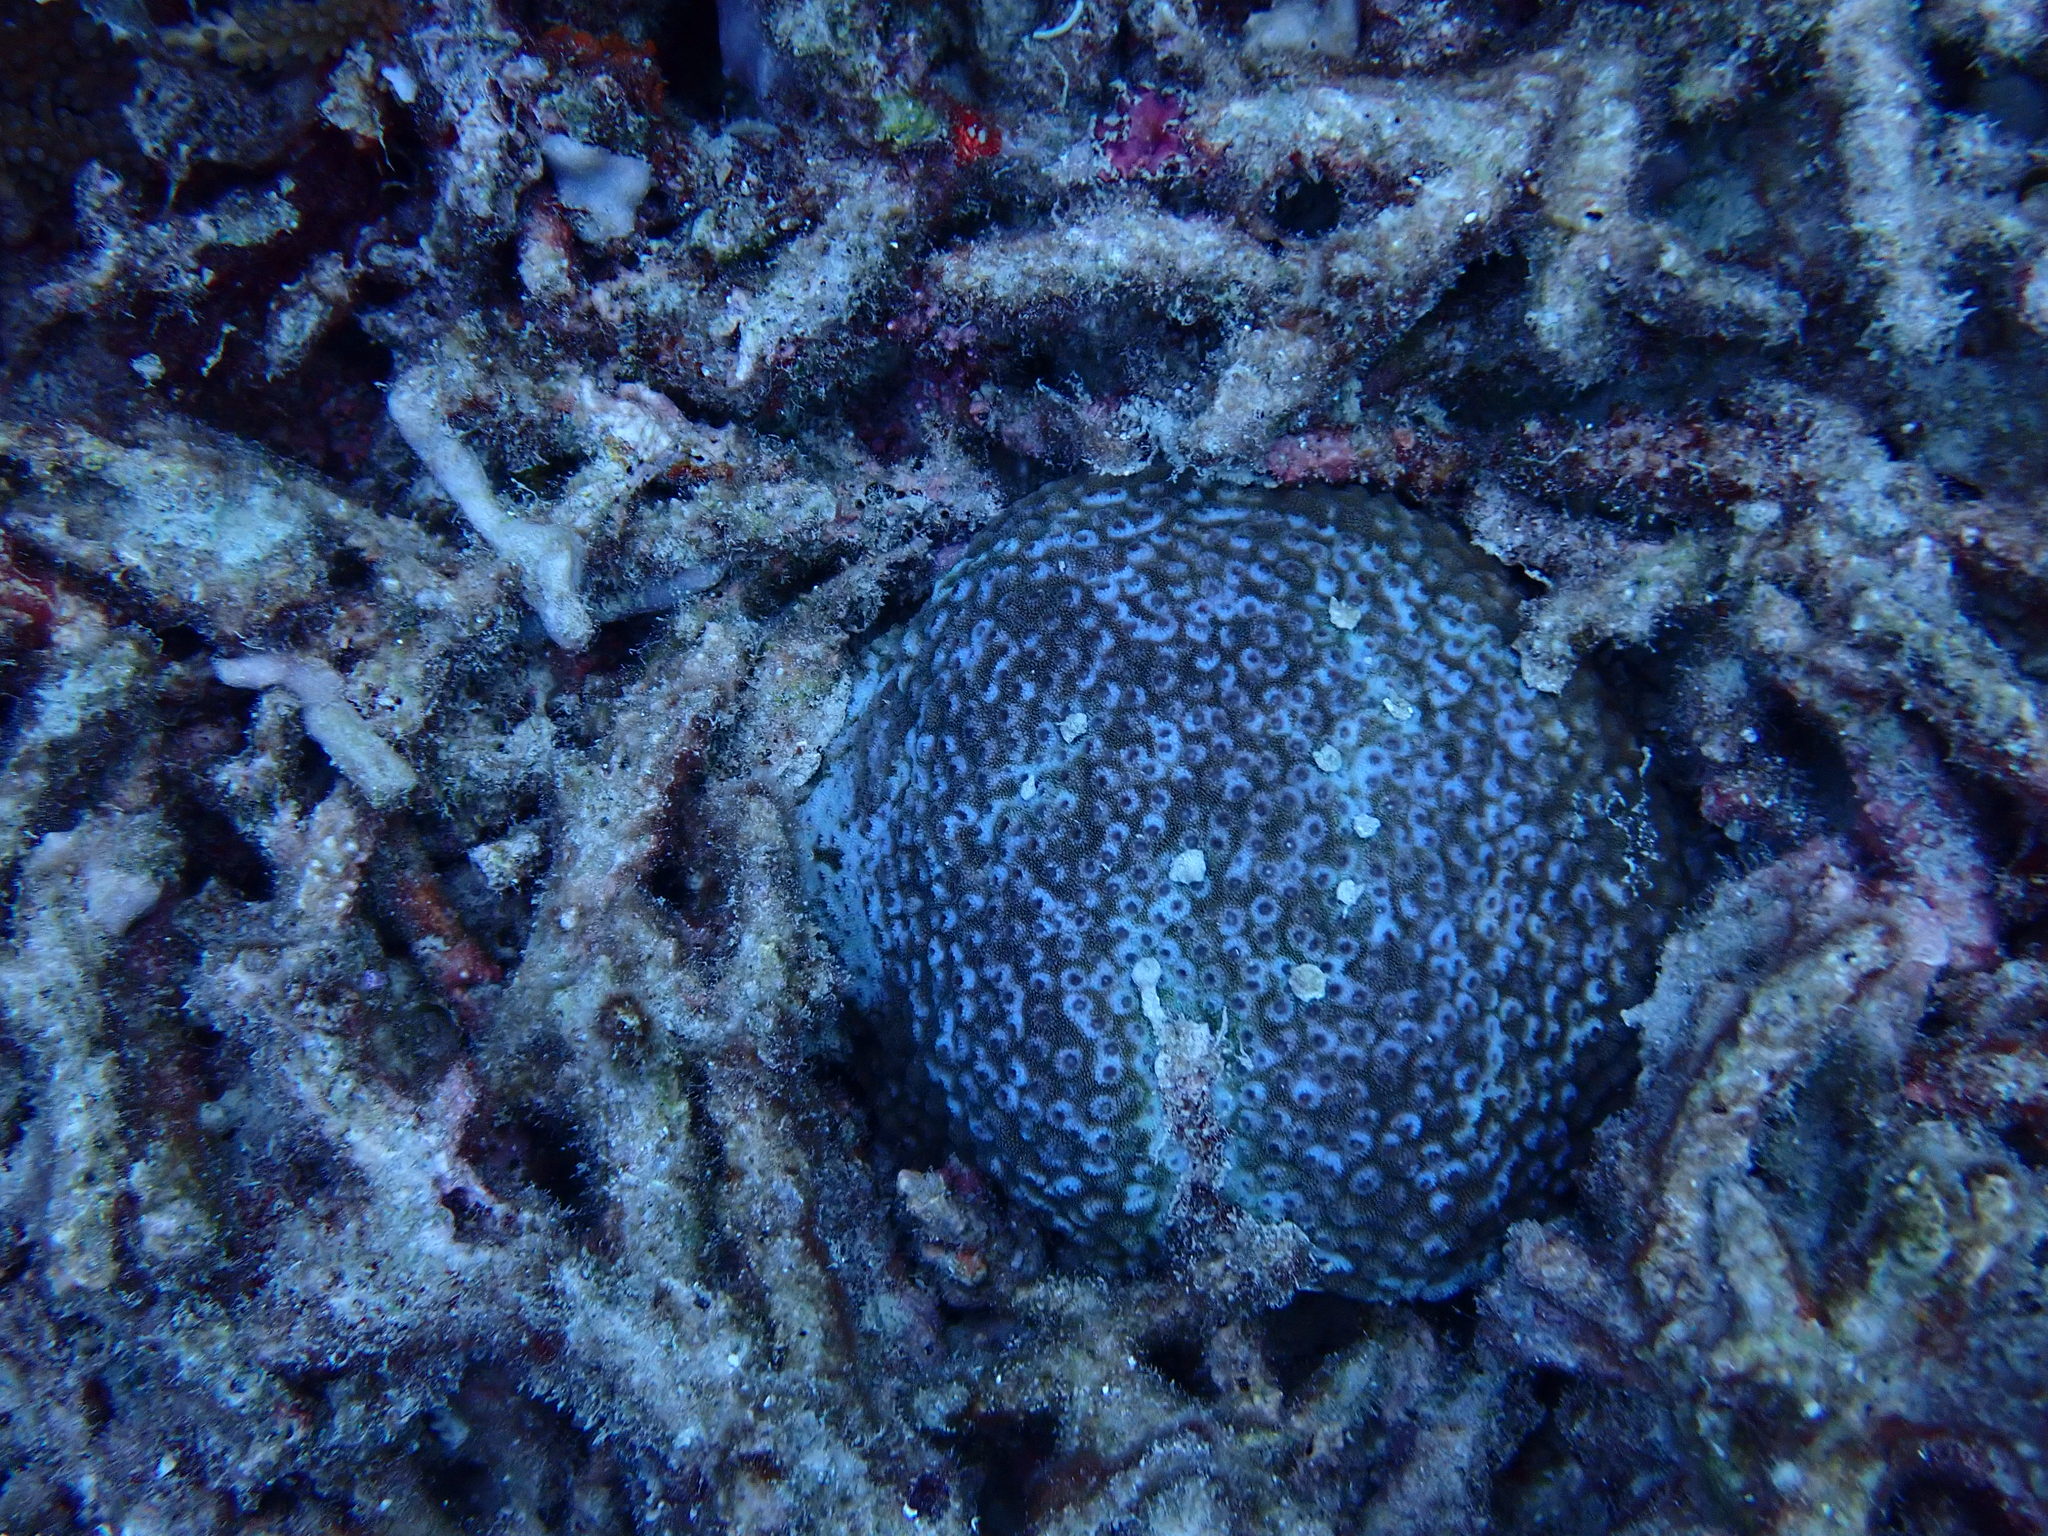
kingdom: Animalia
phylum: Cnidaria
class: Anthozoa
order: Scleractinia
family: Acroporidae
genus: Astreopora
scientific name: Astreopora myriophthalma
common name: Starflower coral
